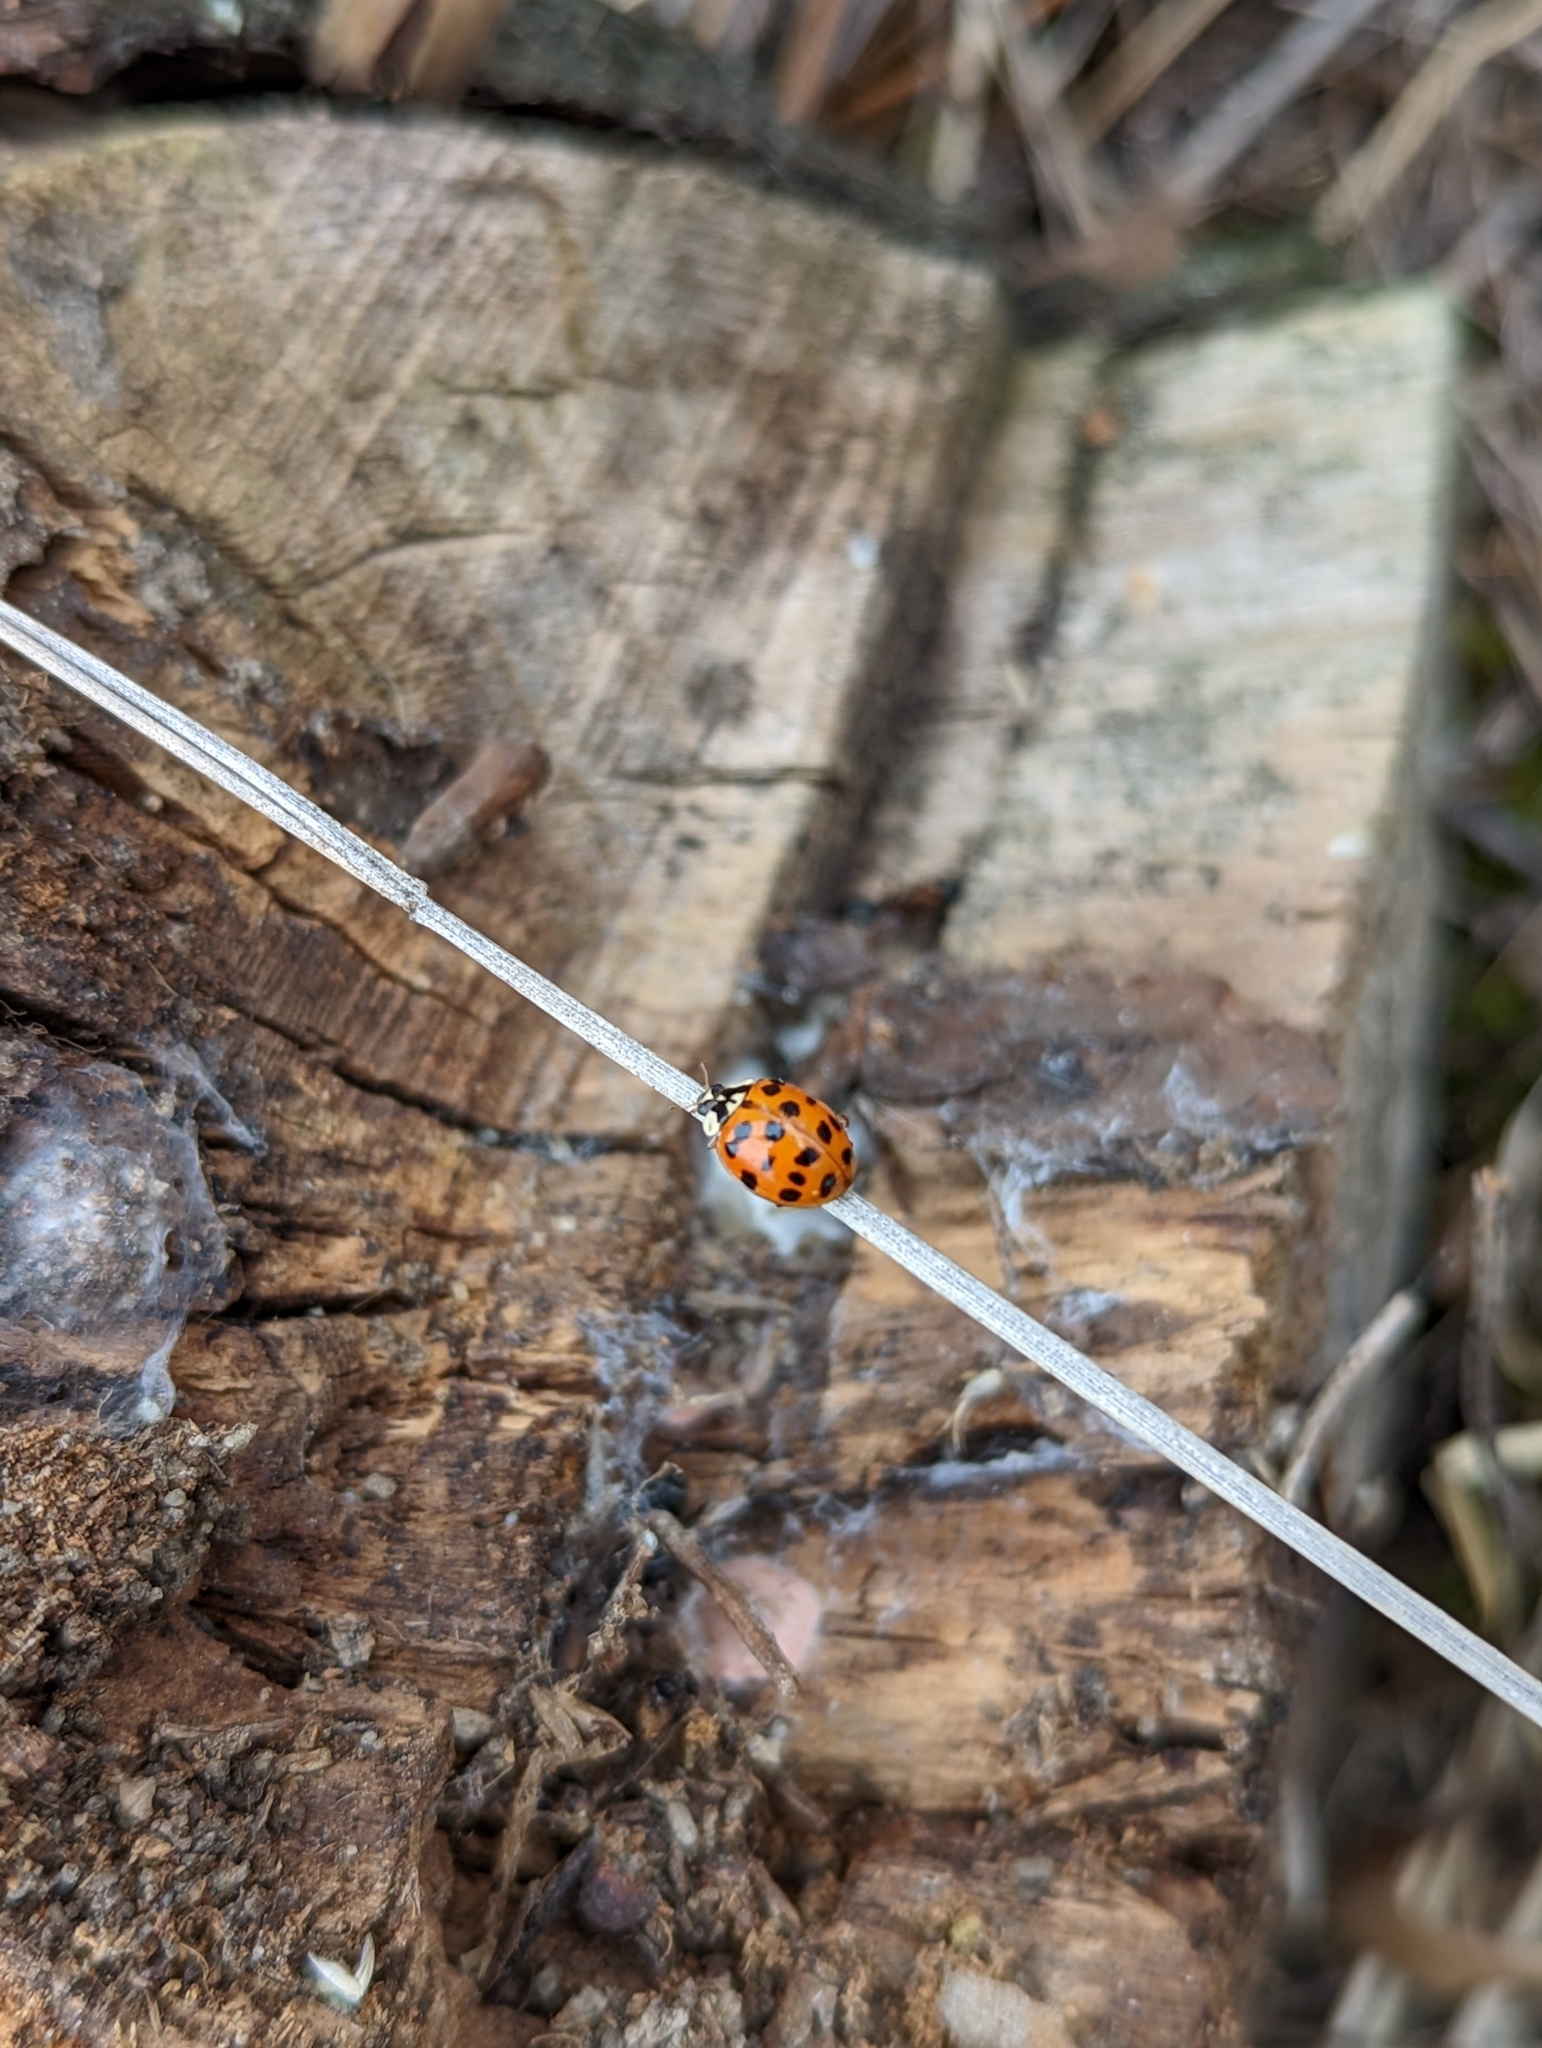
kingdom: Animalia
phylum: Arthropoda
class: Insecta
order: Coleoptera
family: Coccinellidae
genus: Harmonia
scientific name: Harmonia axyridis
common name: Harlequin ladybird
